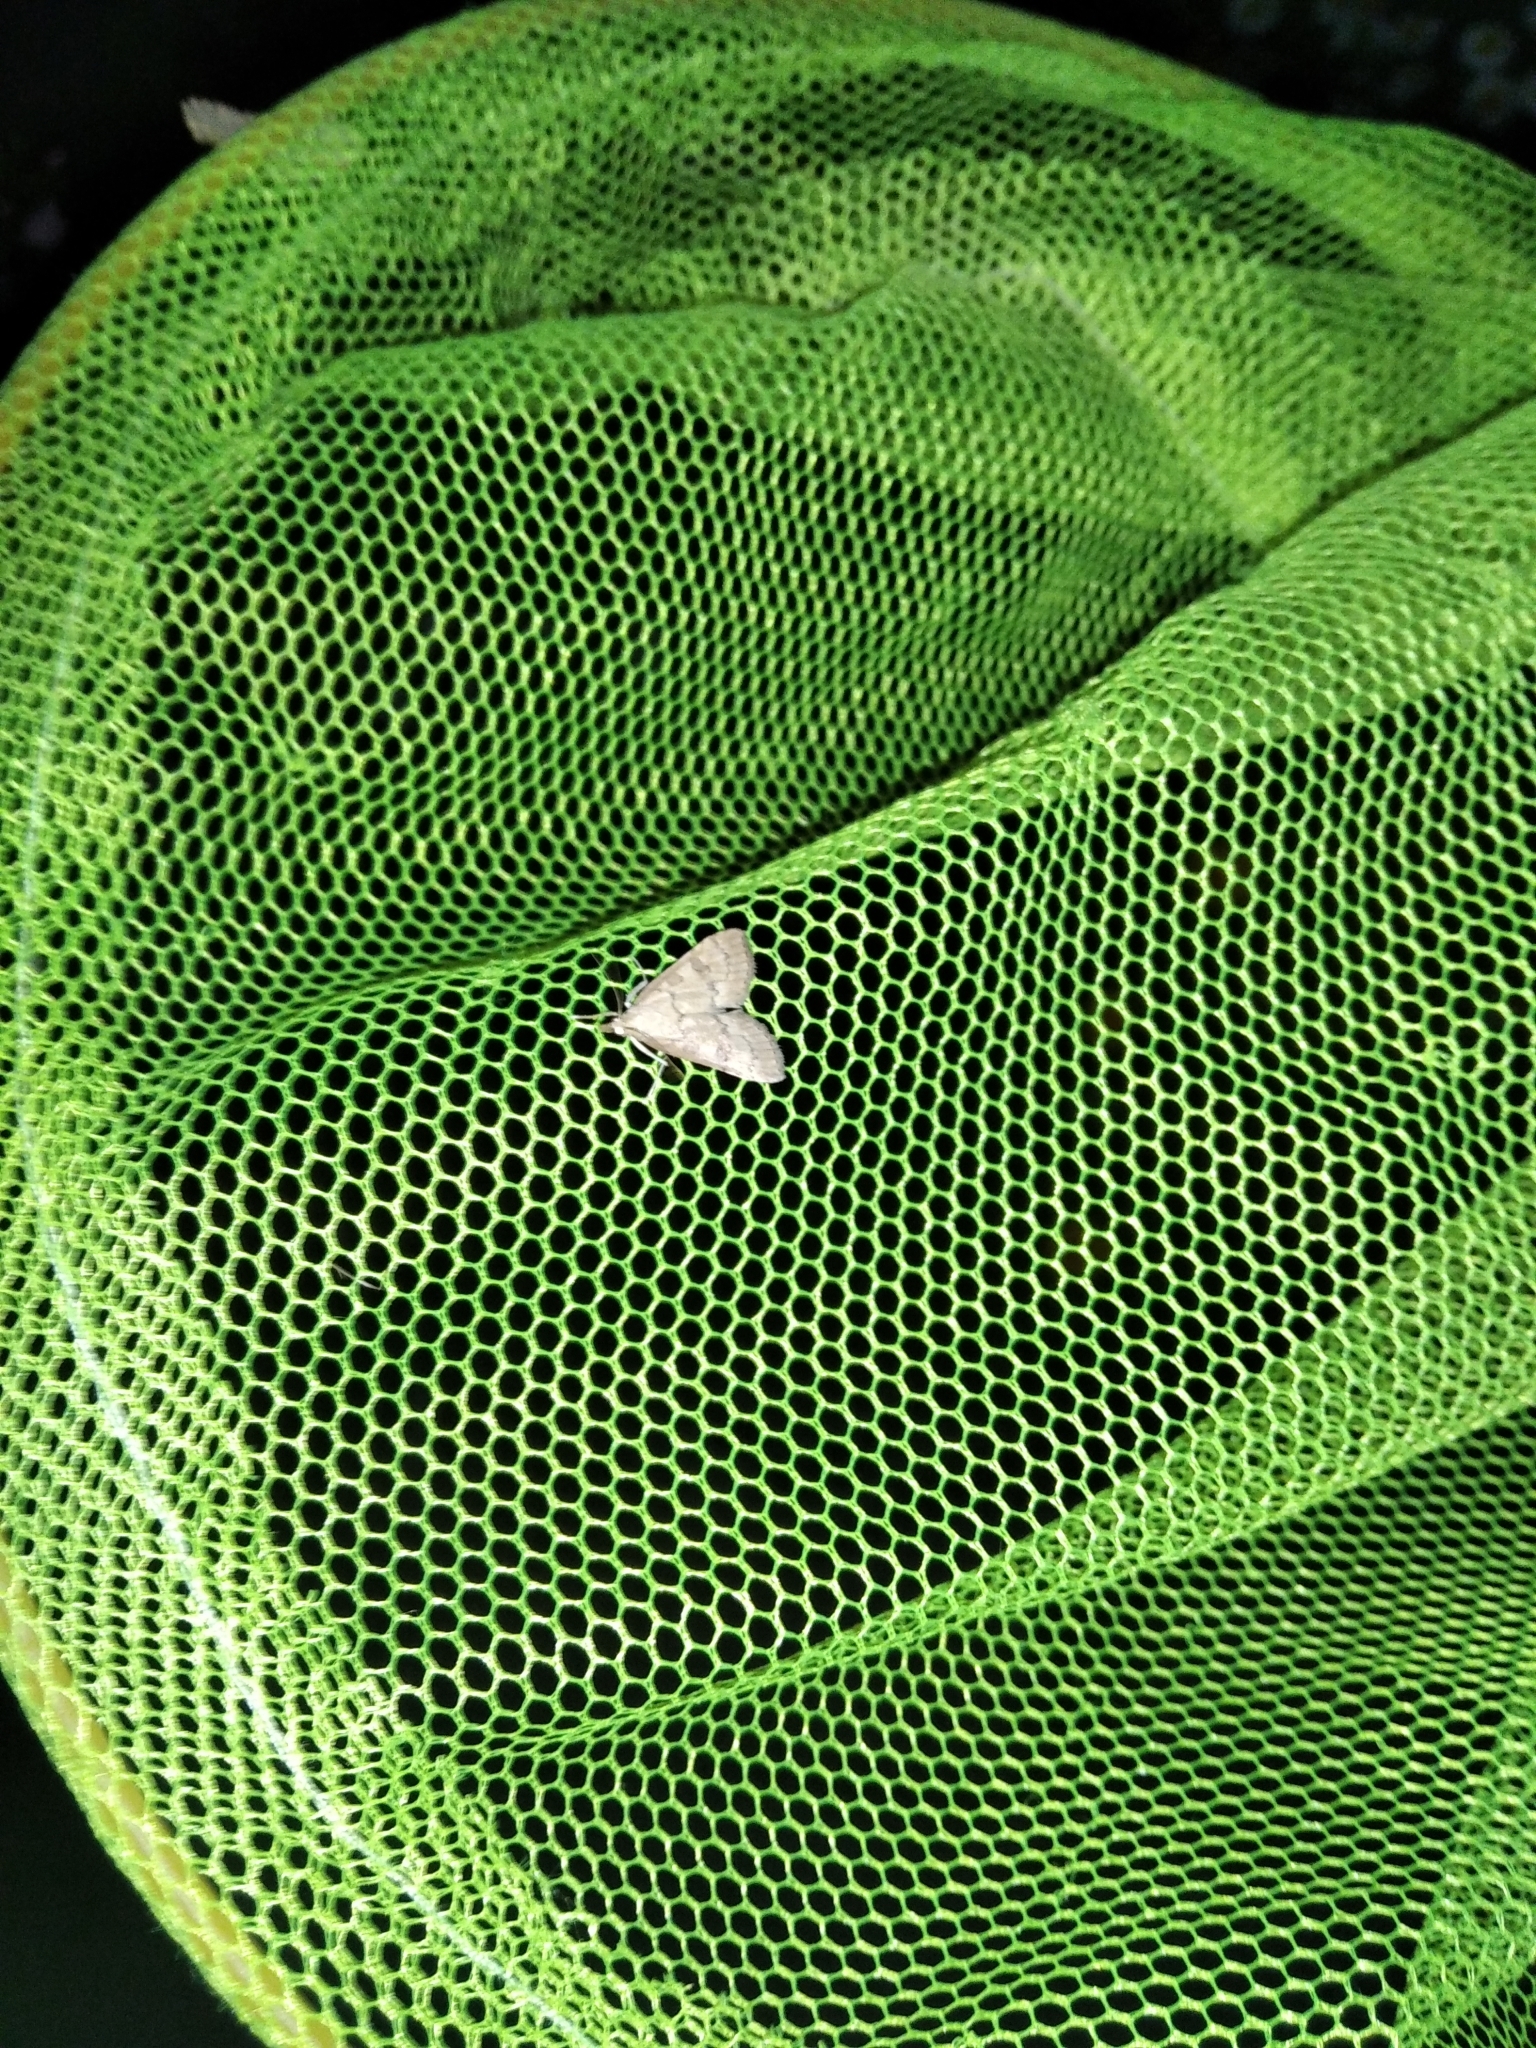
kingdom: Animalia
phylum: Arthropoda
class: Insecta
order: Lepidoptera
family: Crambidae
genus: Udea
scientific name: Udea fulvalis
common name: Fulvous pearl
